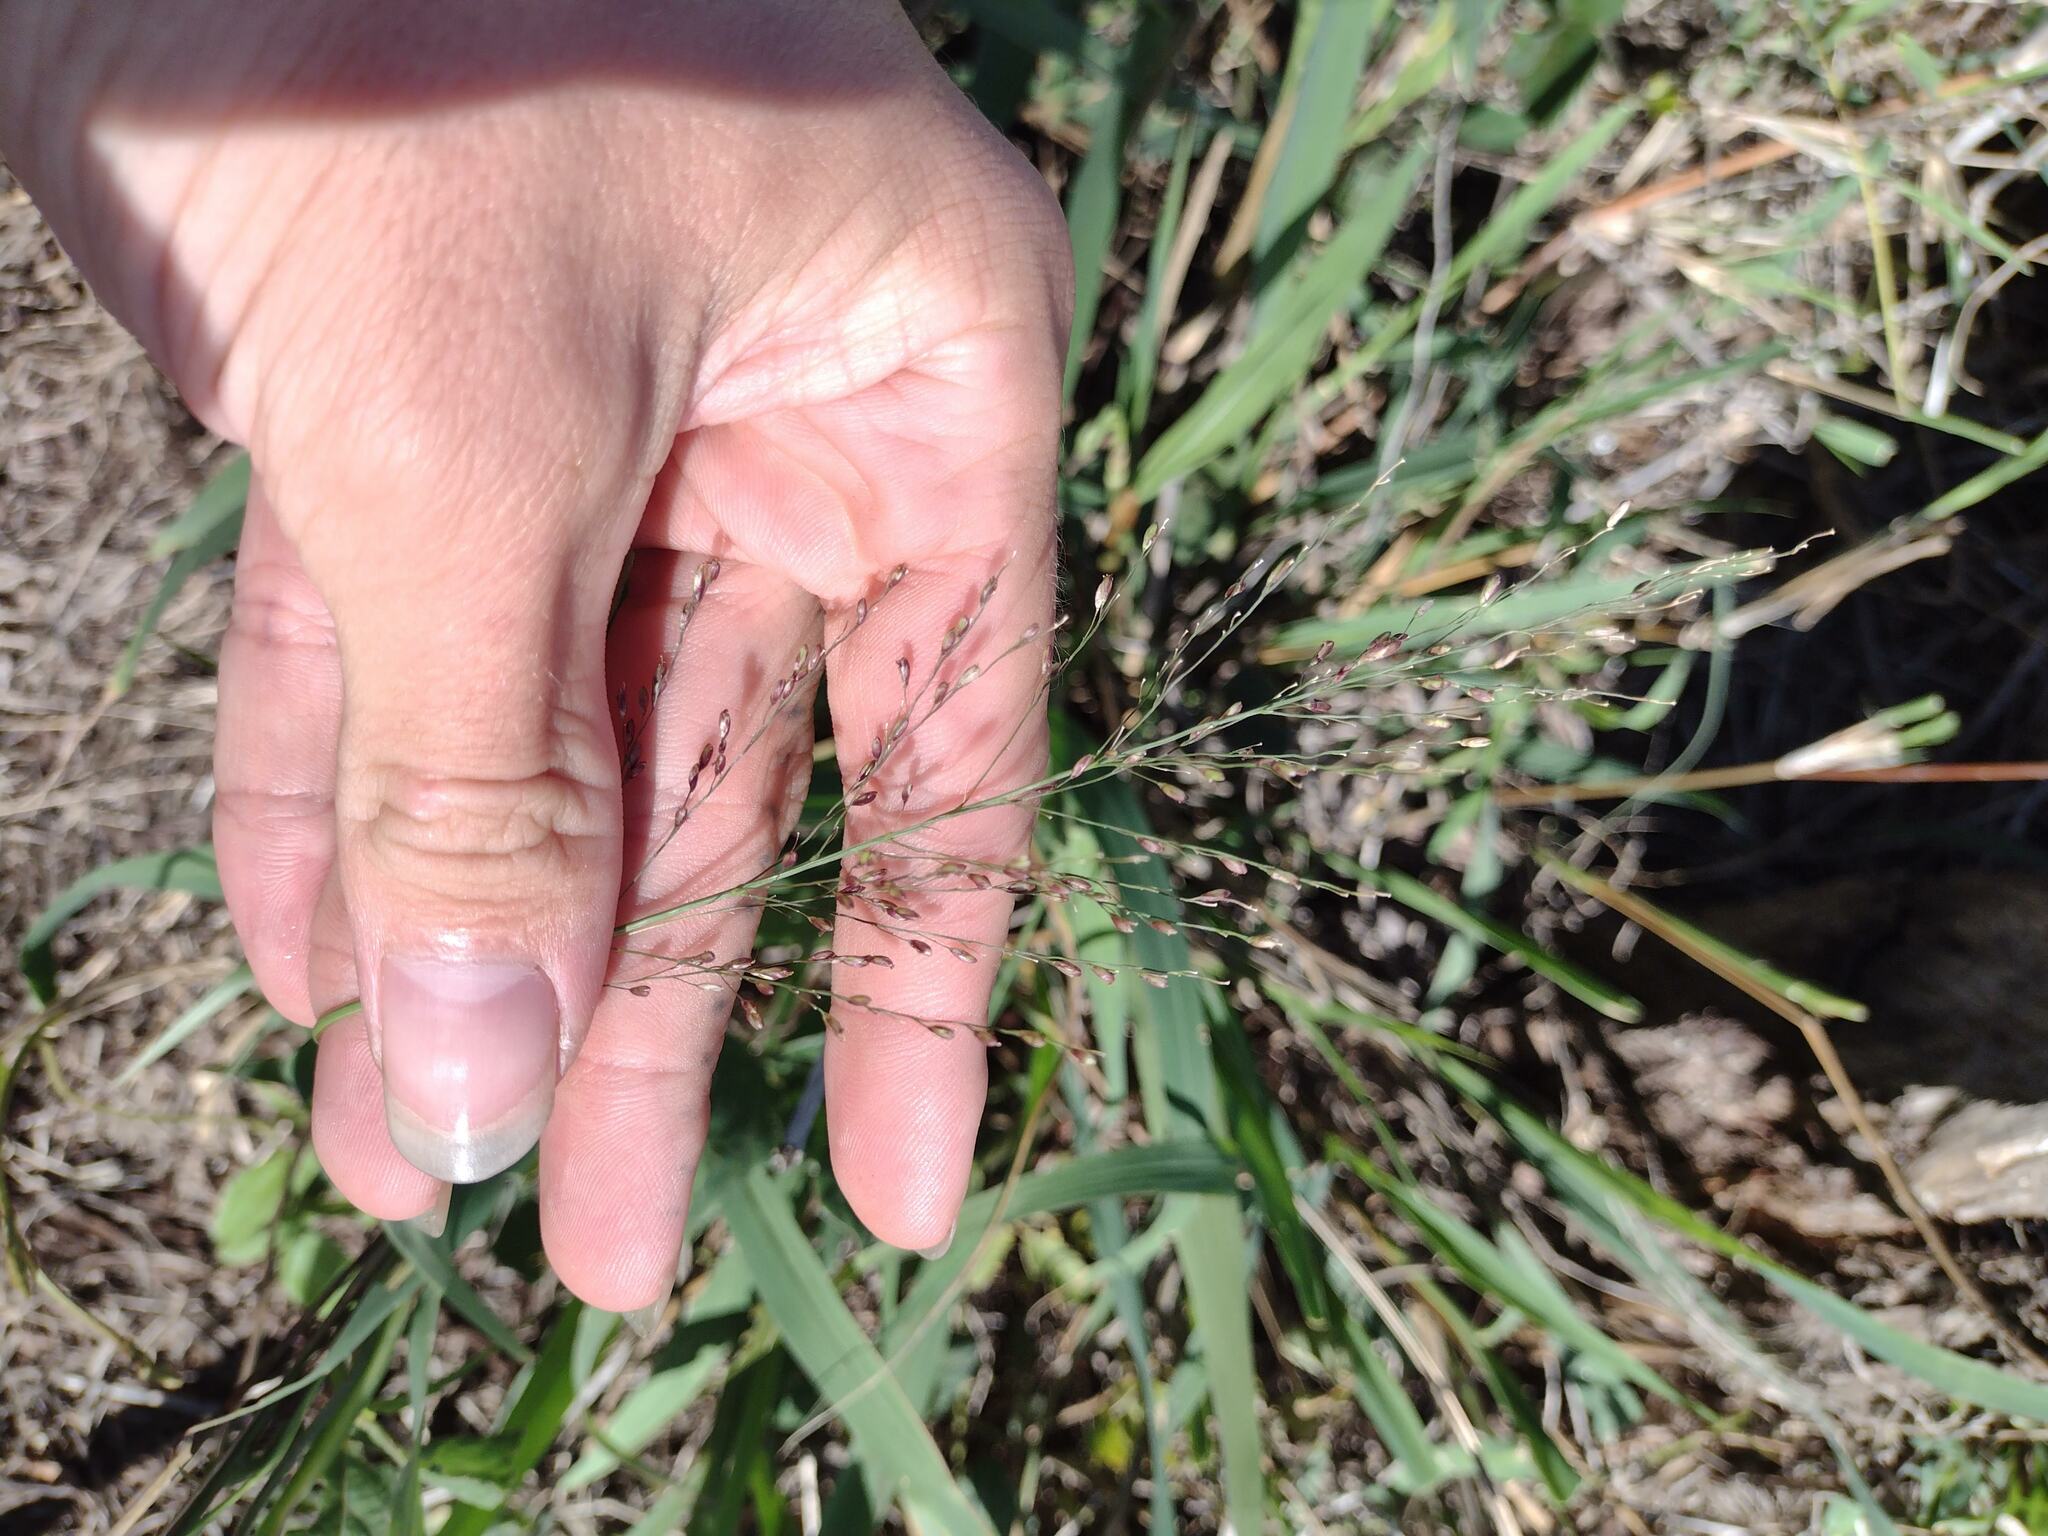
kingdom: Plantae
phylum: Tracheophyta
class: Liliopsida
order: Poales
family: Poaceae
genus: Megathyrsus
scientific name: Megathyrsus maximus
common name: Guineagrass
